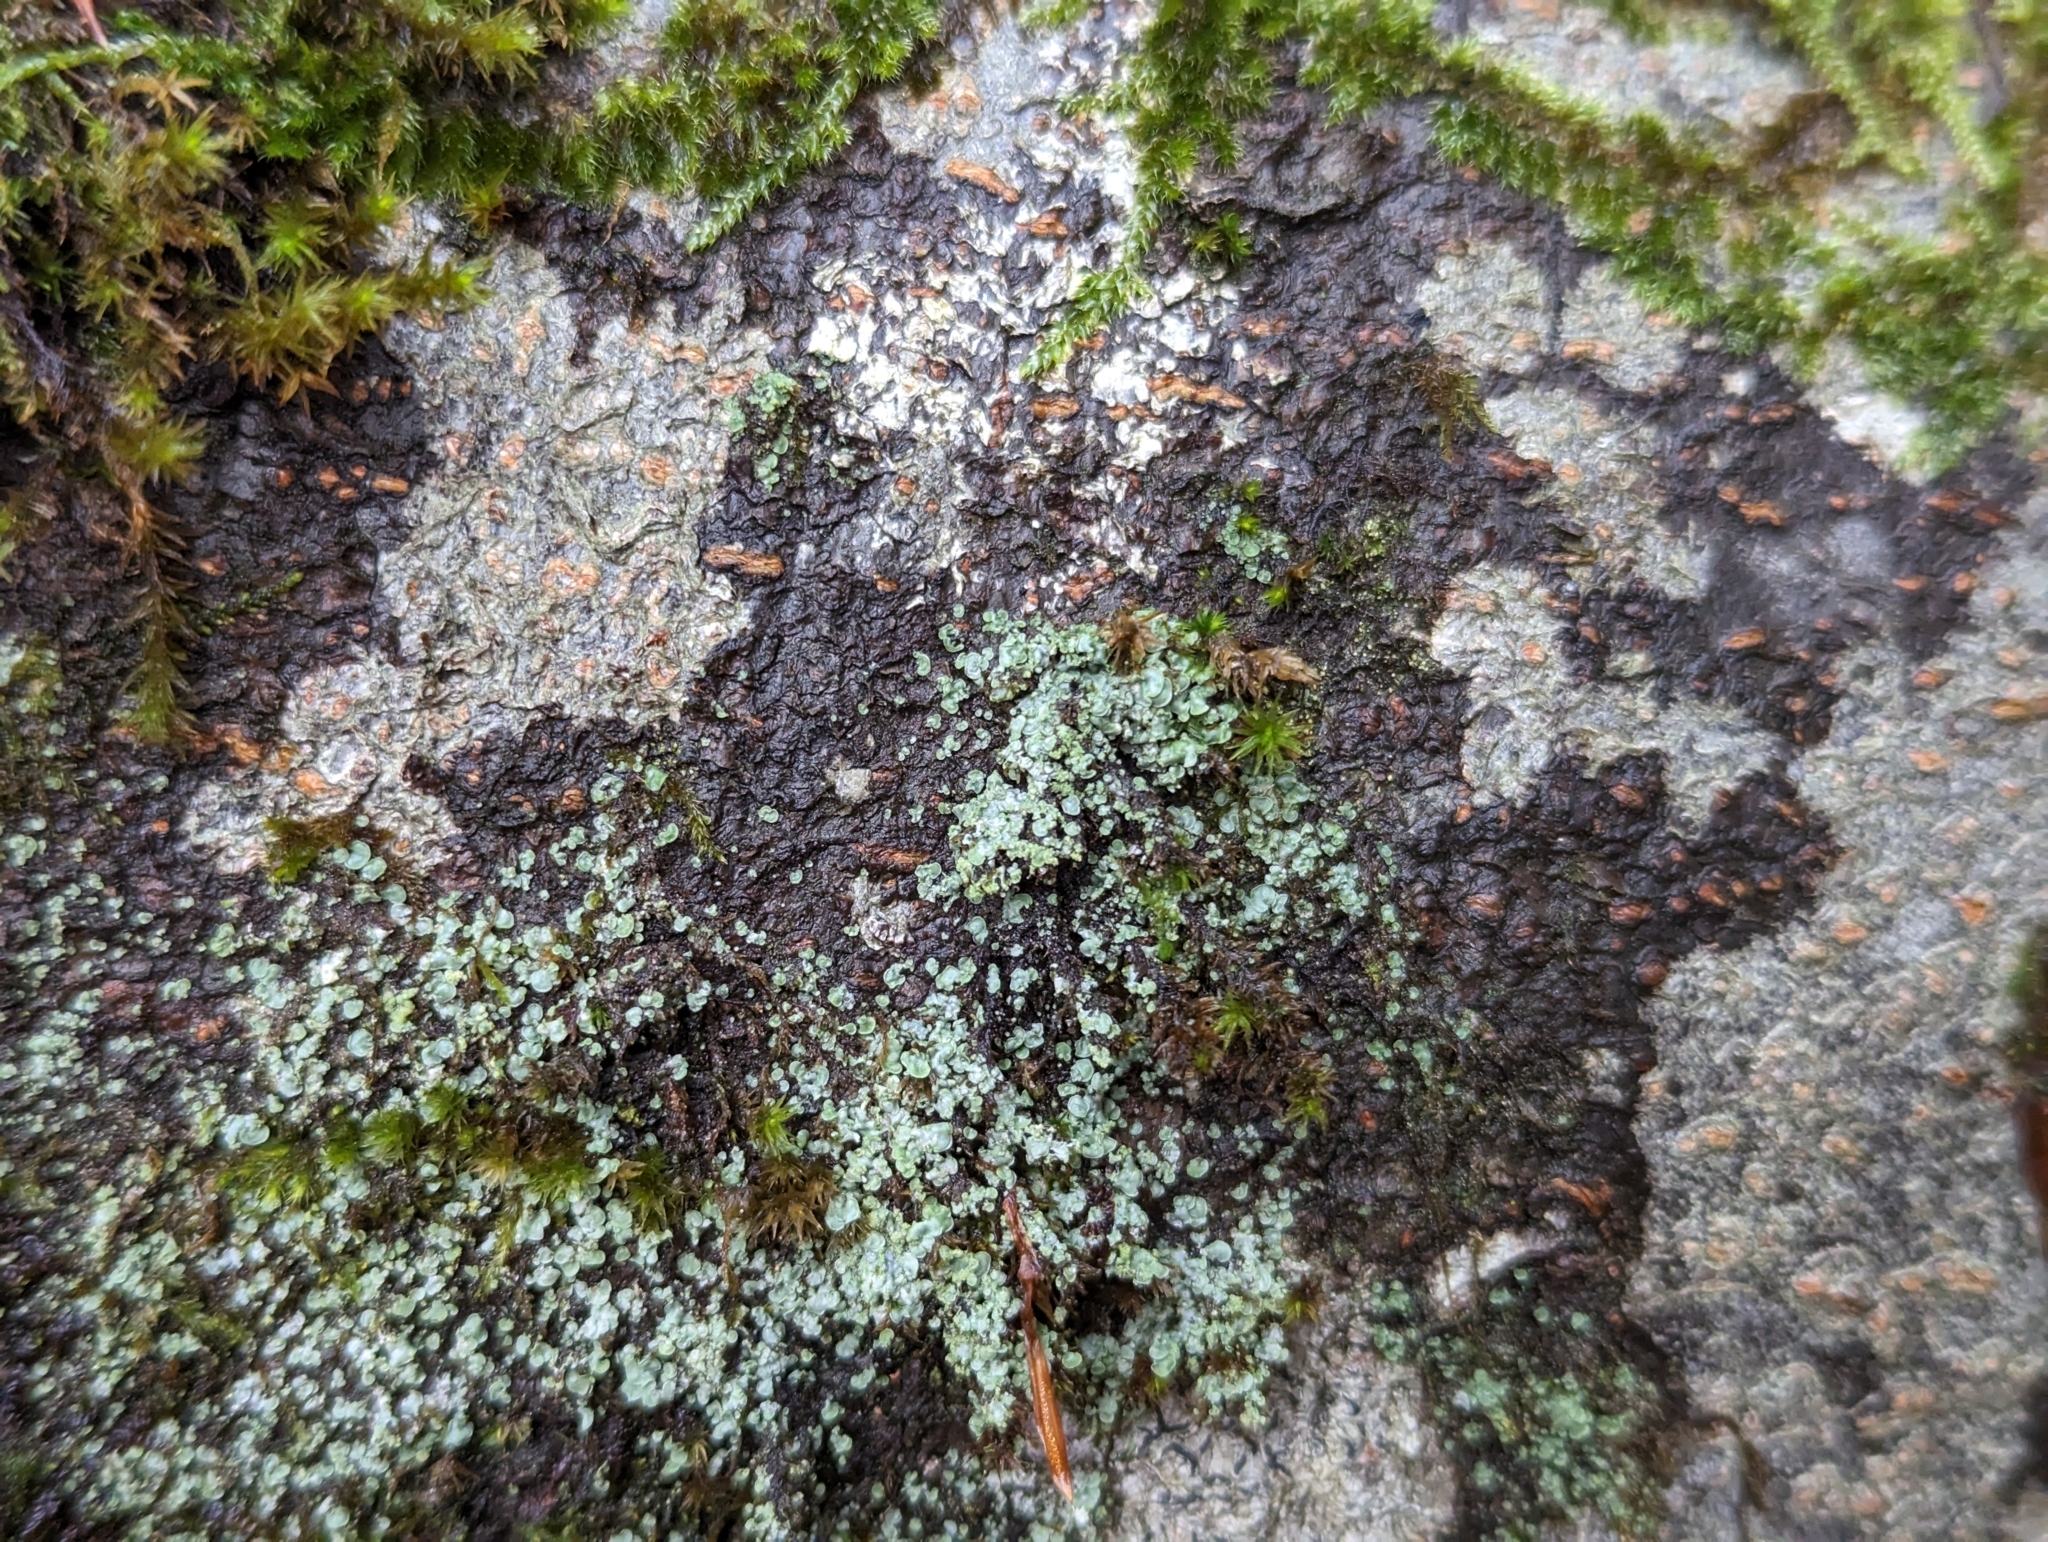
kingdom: Fungi
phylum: Ascomycota
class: Eurotiomycetes
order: Verrucariales
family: Verrucariaceae
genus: Normandina
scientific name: Normandina pulchella
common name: Elf ears lichen
